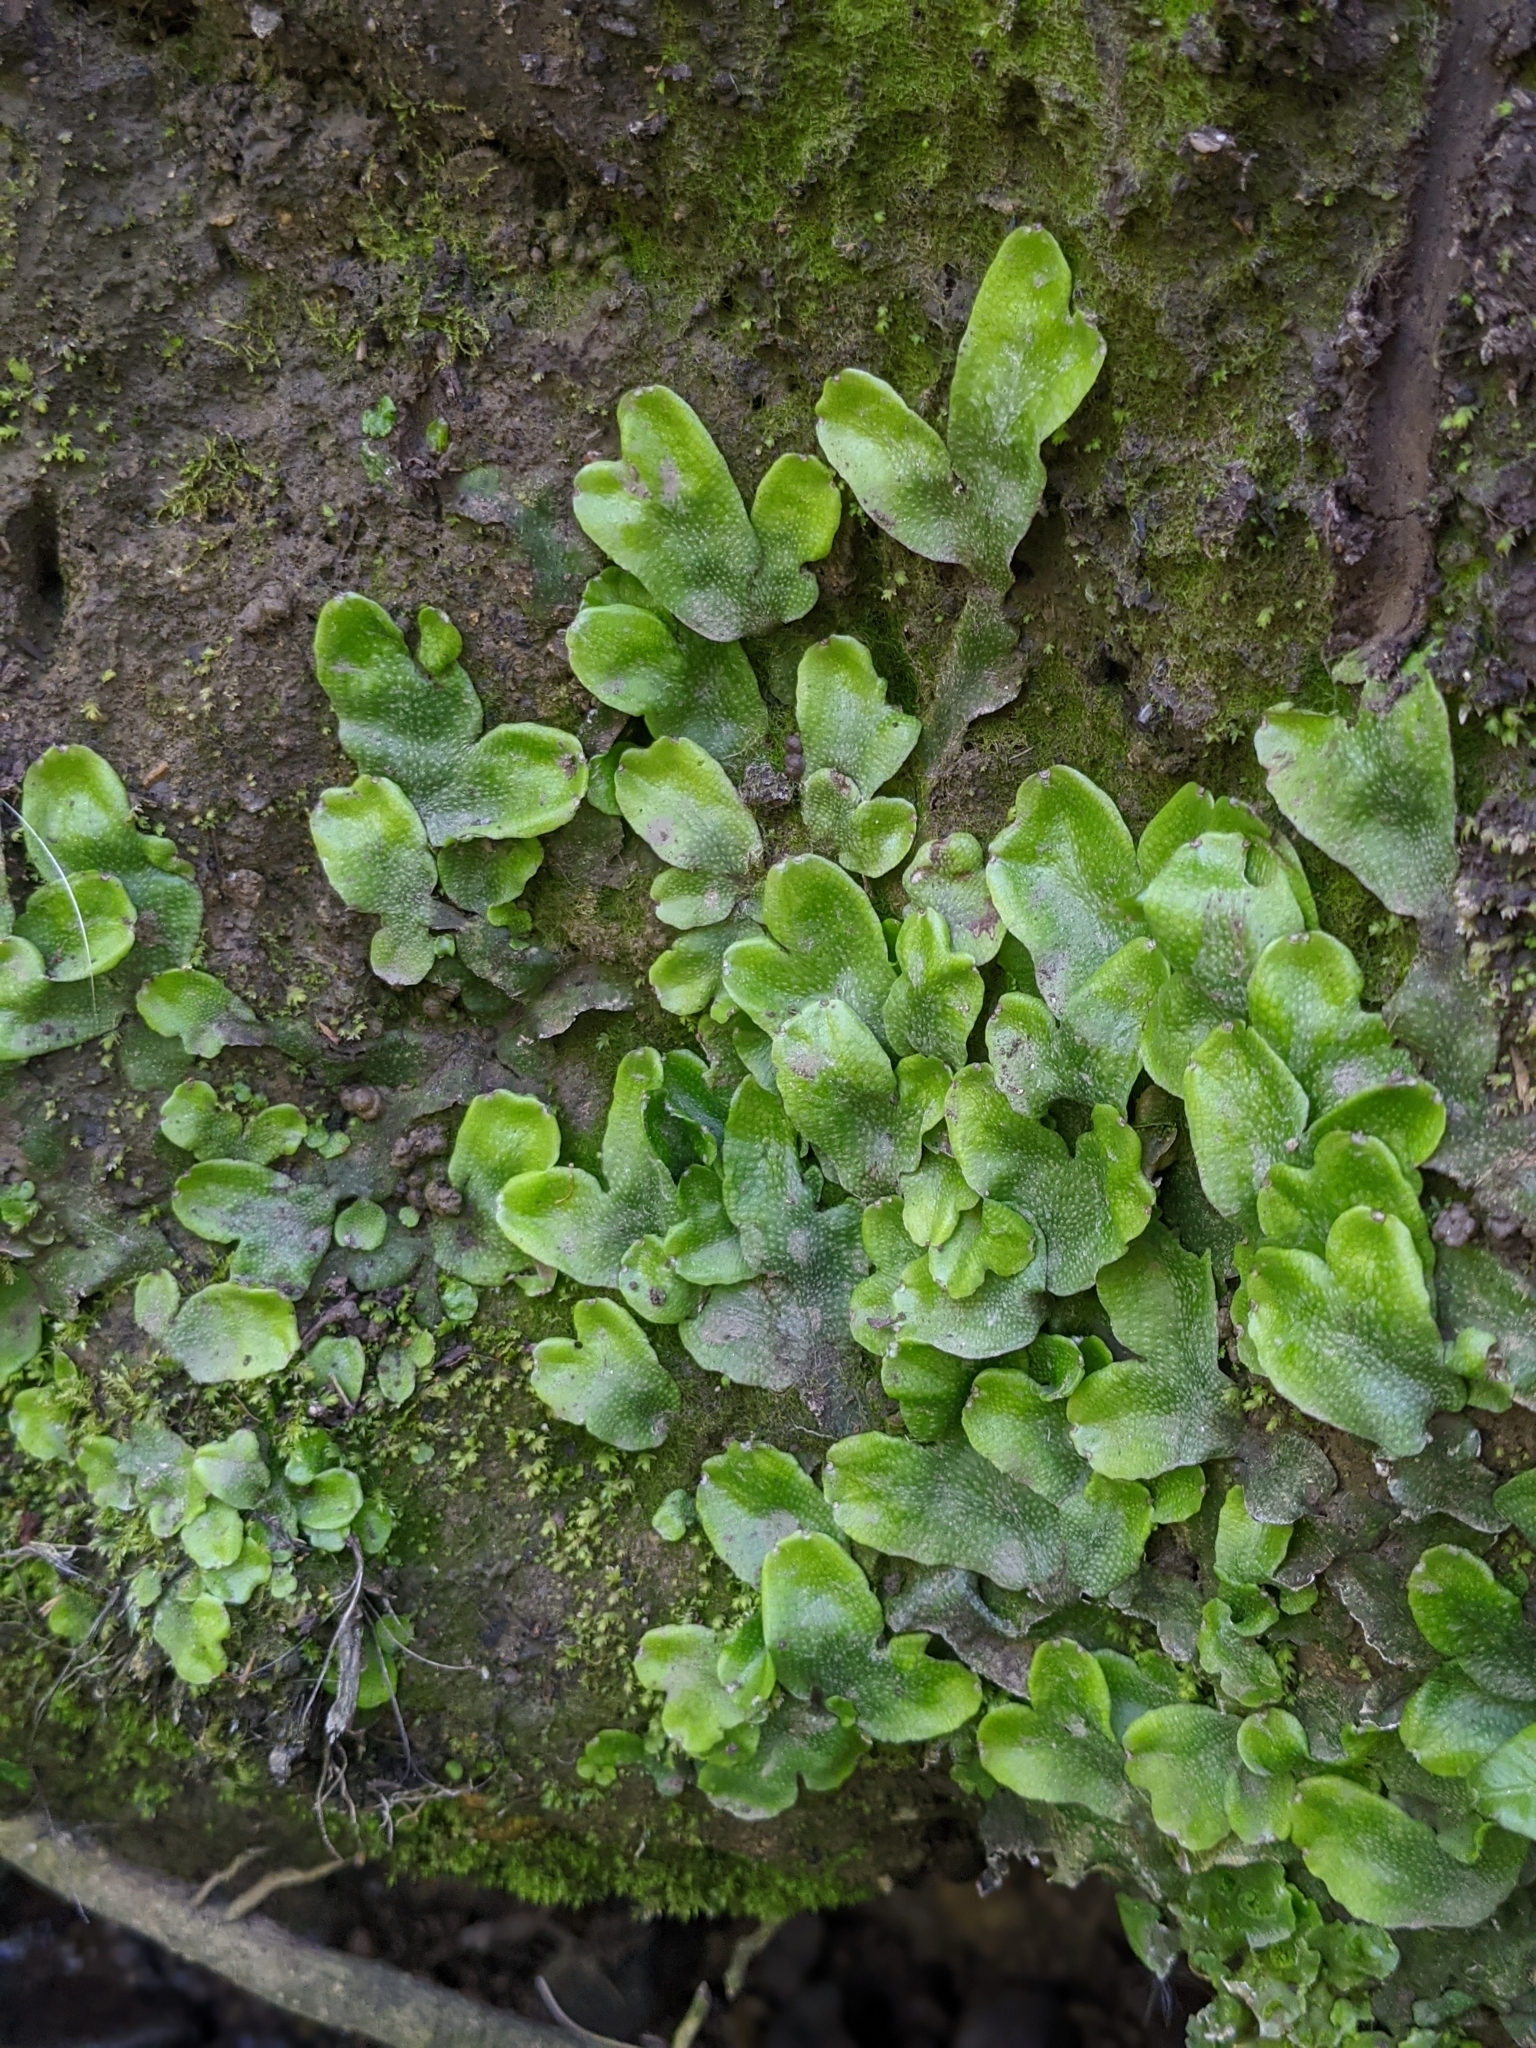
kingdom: Plantae
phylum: Marchantiophyta
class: Marchantiopsida
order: Marchantiales
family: Conocephalaceae
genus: Conocephalum
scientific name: Conocephalum conicum
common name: Great scented liverwort
